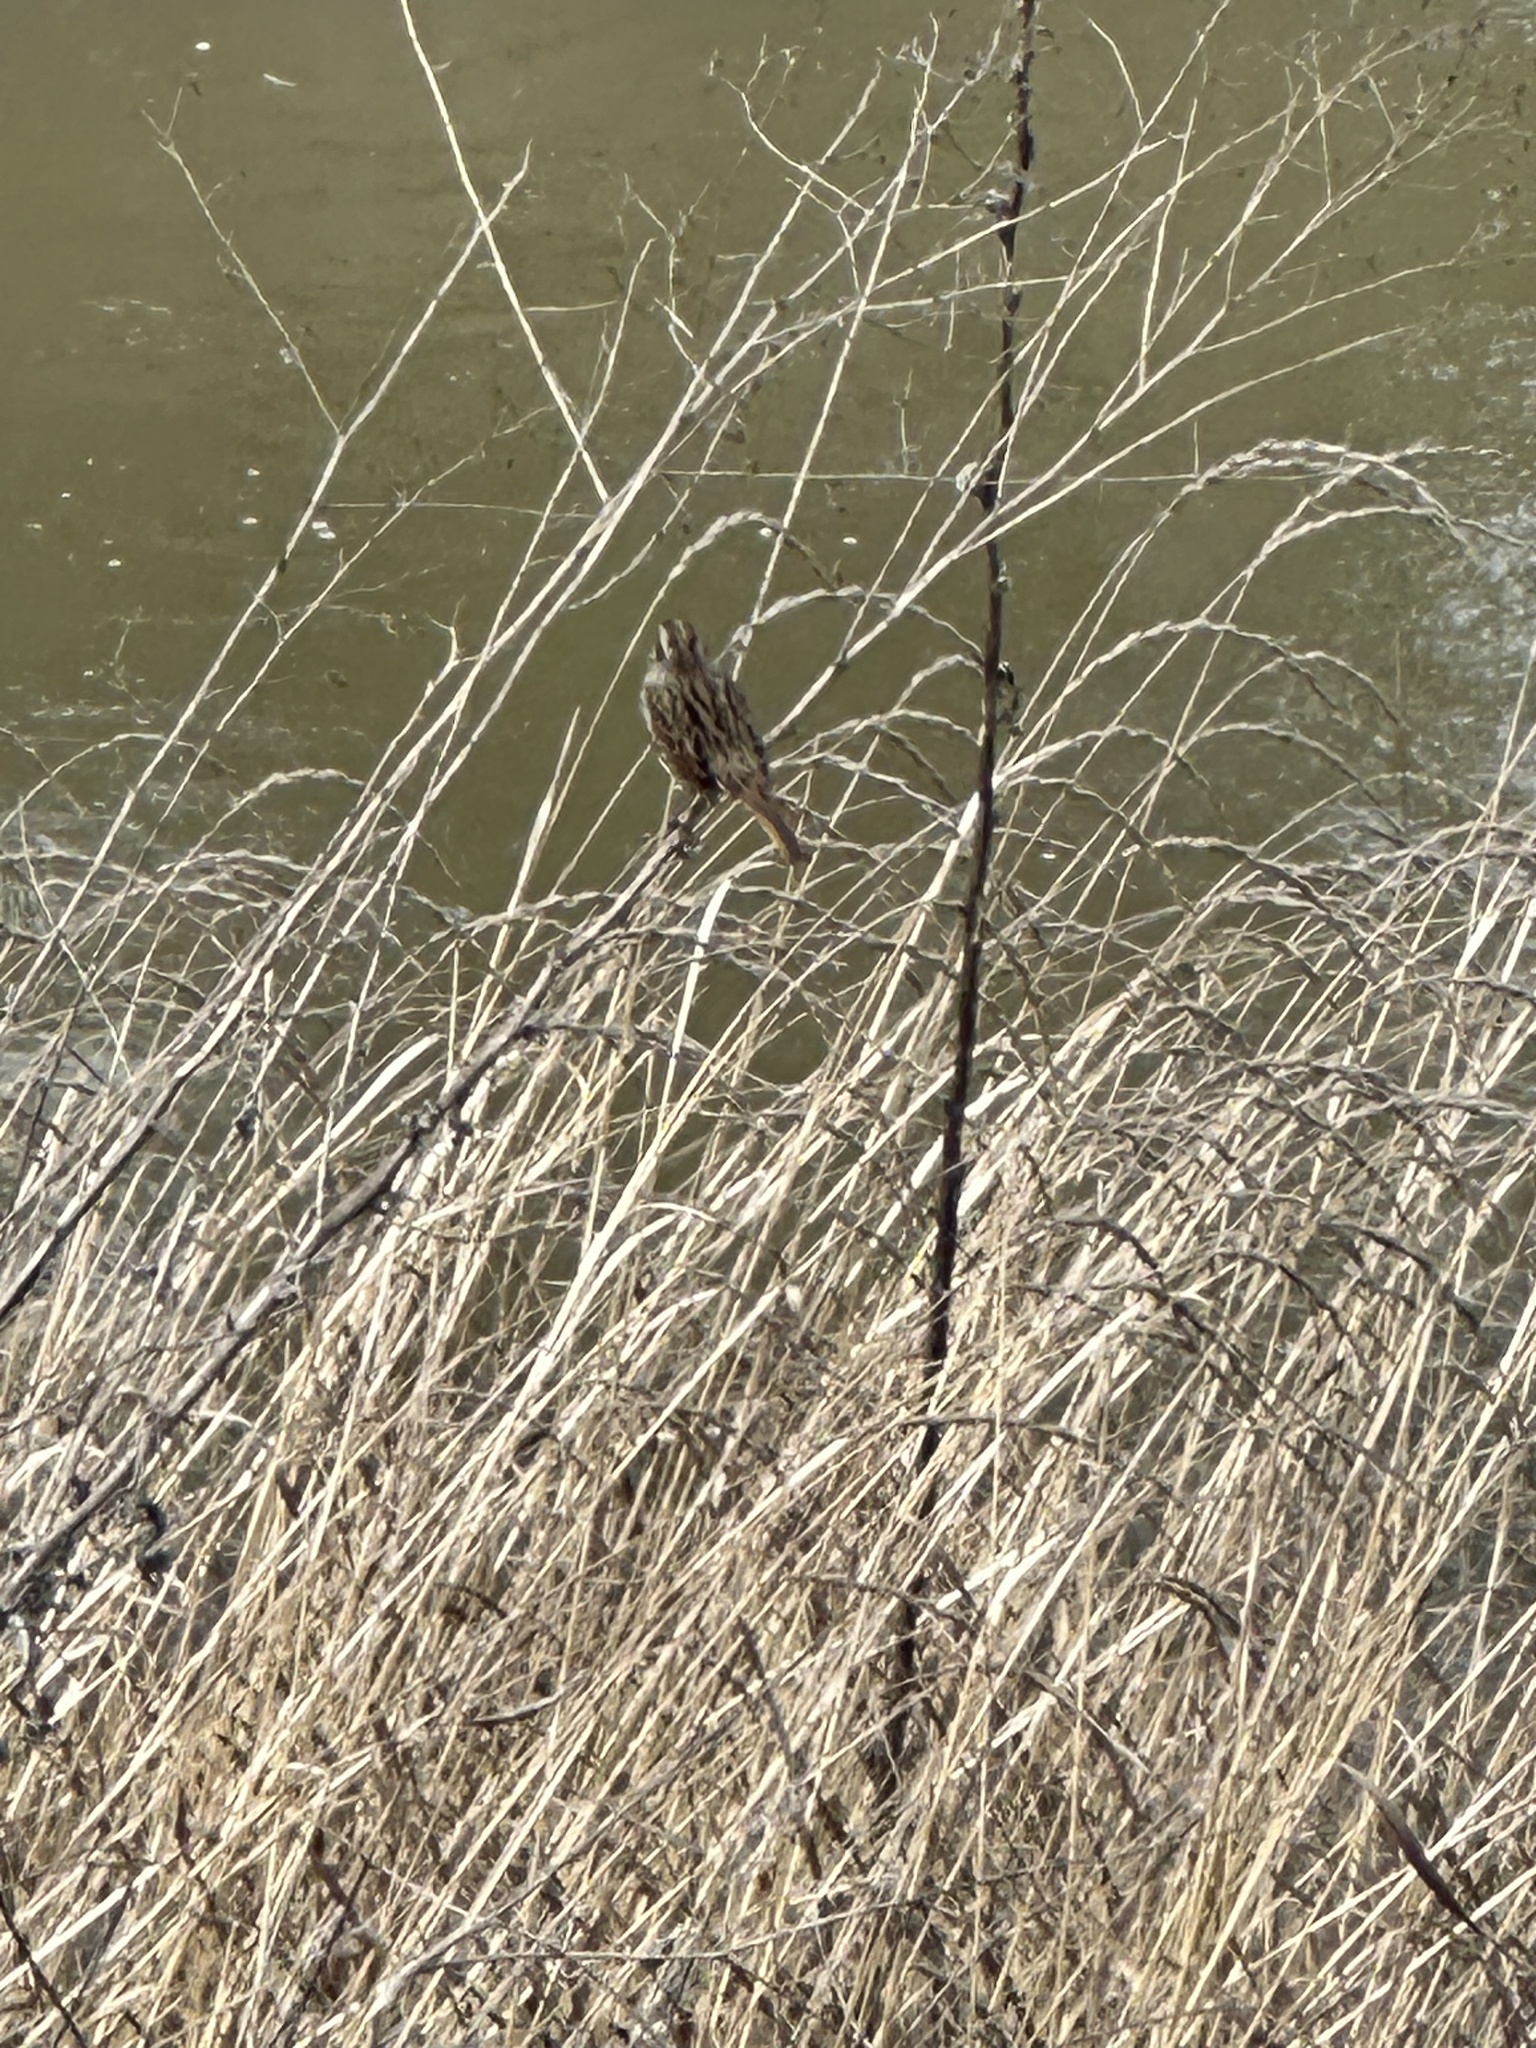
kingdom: Animalia
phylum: Chordata
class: Aves
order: Passeriformes
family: Passerellidae
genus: Melospiza
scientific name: Melospiza melodia
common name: Song sparrow
